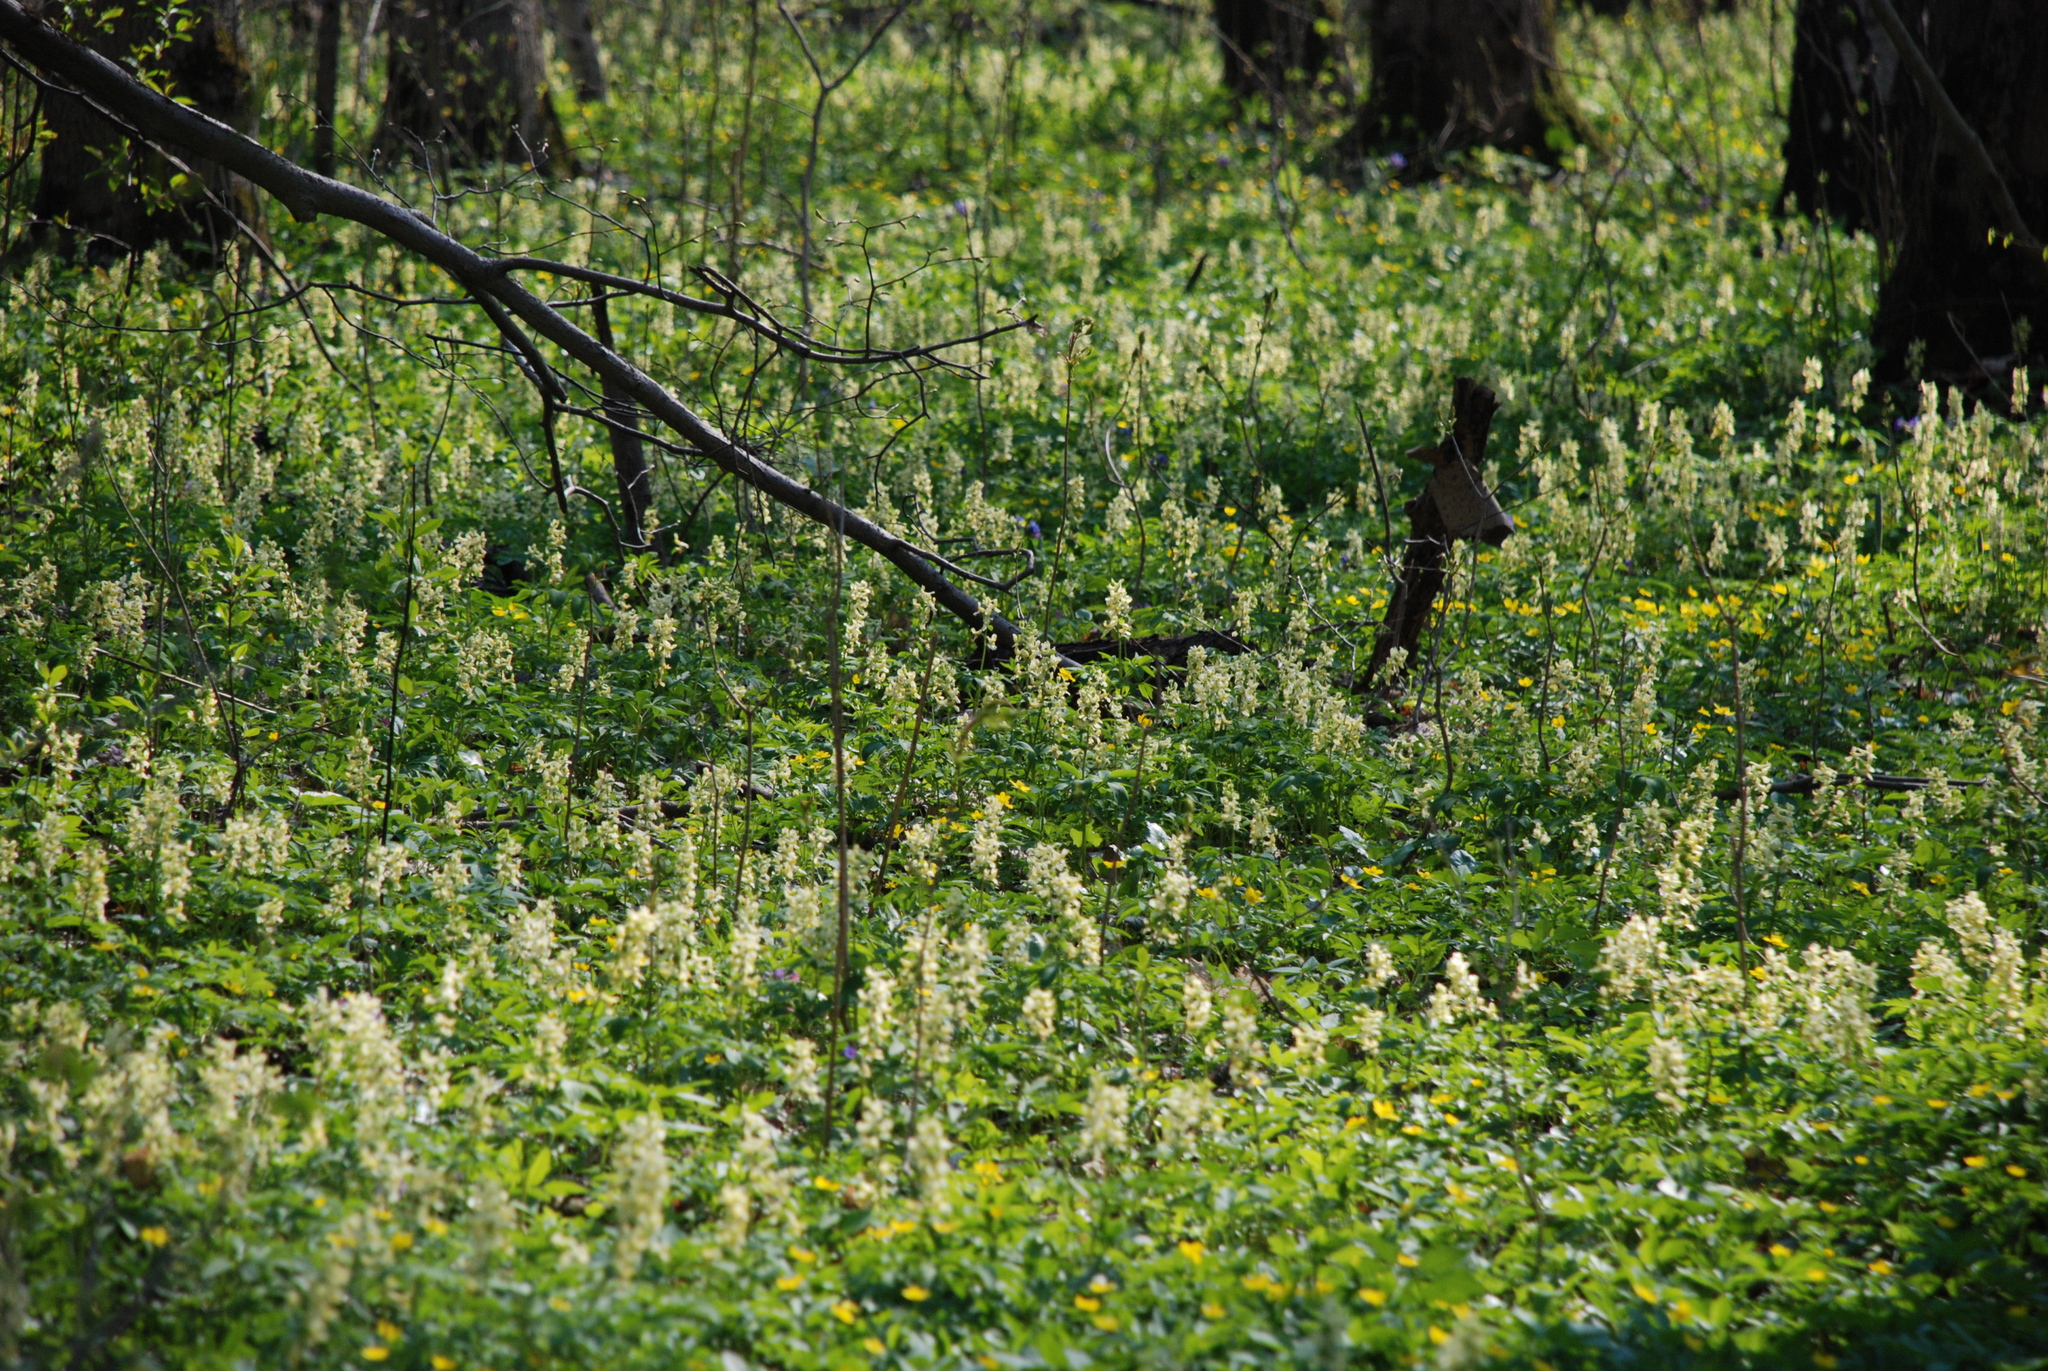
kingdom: Plantae
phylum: Tracheophyta
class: Magnoliopsida
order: Ranunculales
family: Papaveraceae
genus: Corydalis
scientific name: Corydalis cava
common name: Hollowroot
